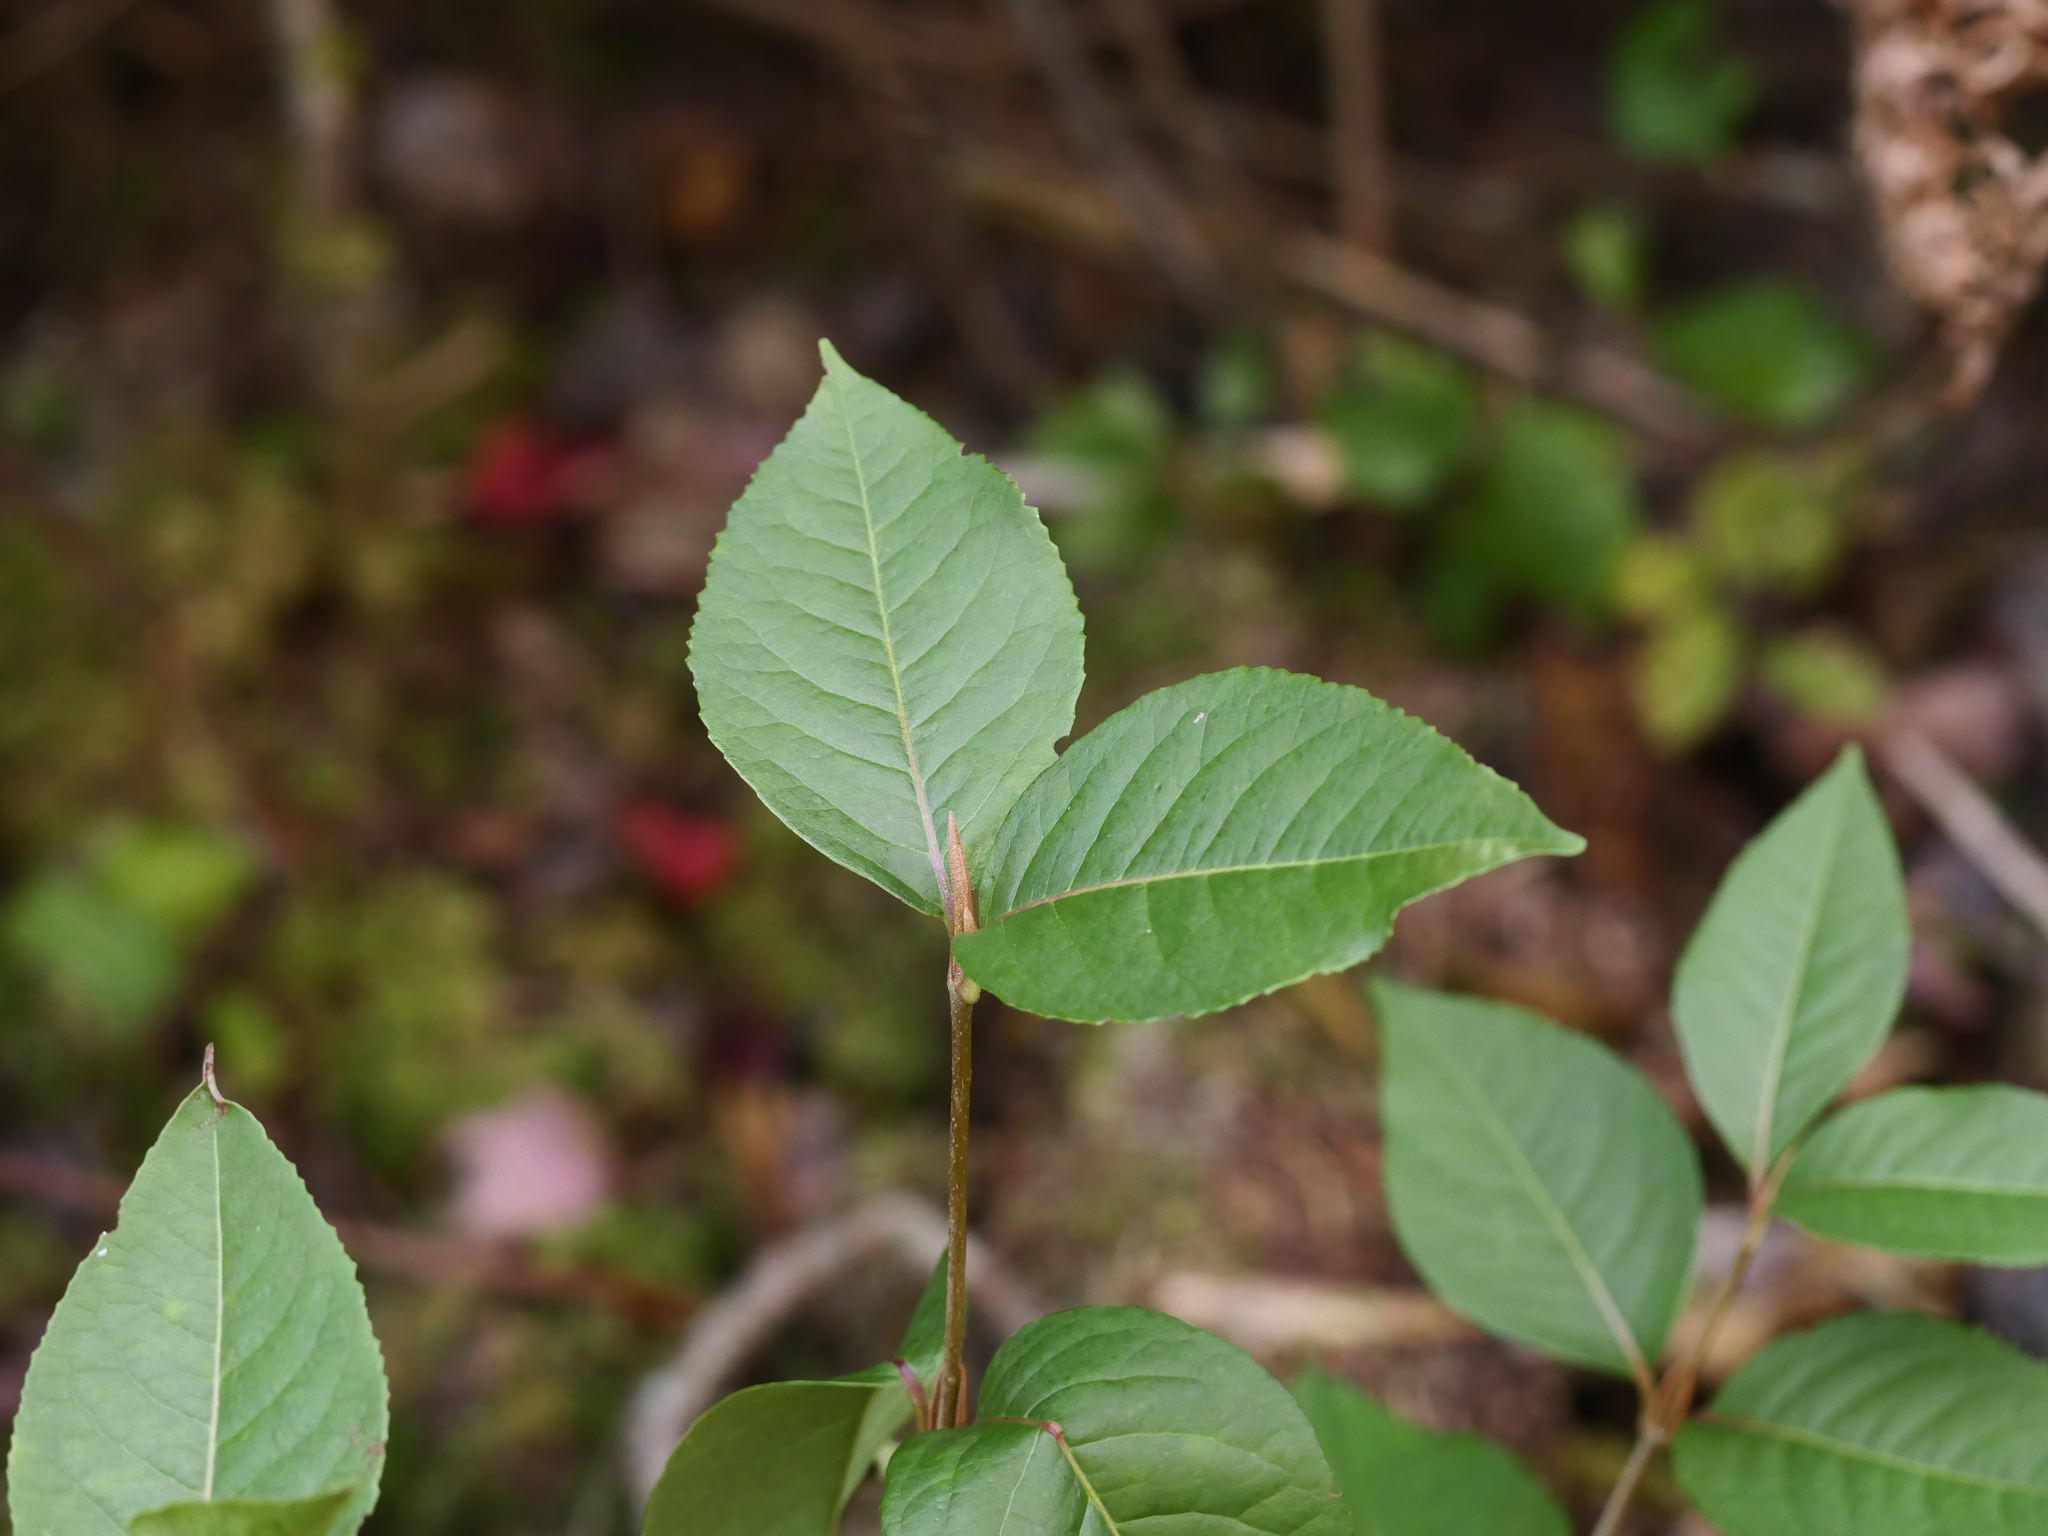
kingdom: Plantae
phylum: Tracheophyta
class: Magnoliopsida
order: Dipsacales
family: Viburnaceae
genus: Viburnum
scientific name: Viburnum cassinoides
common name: Swamp haw
